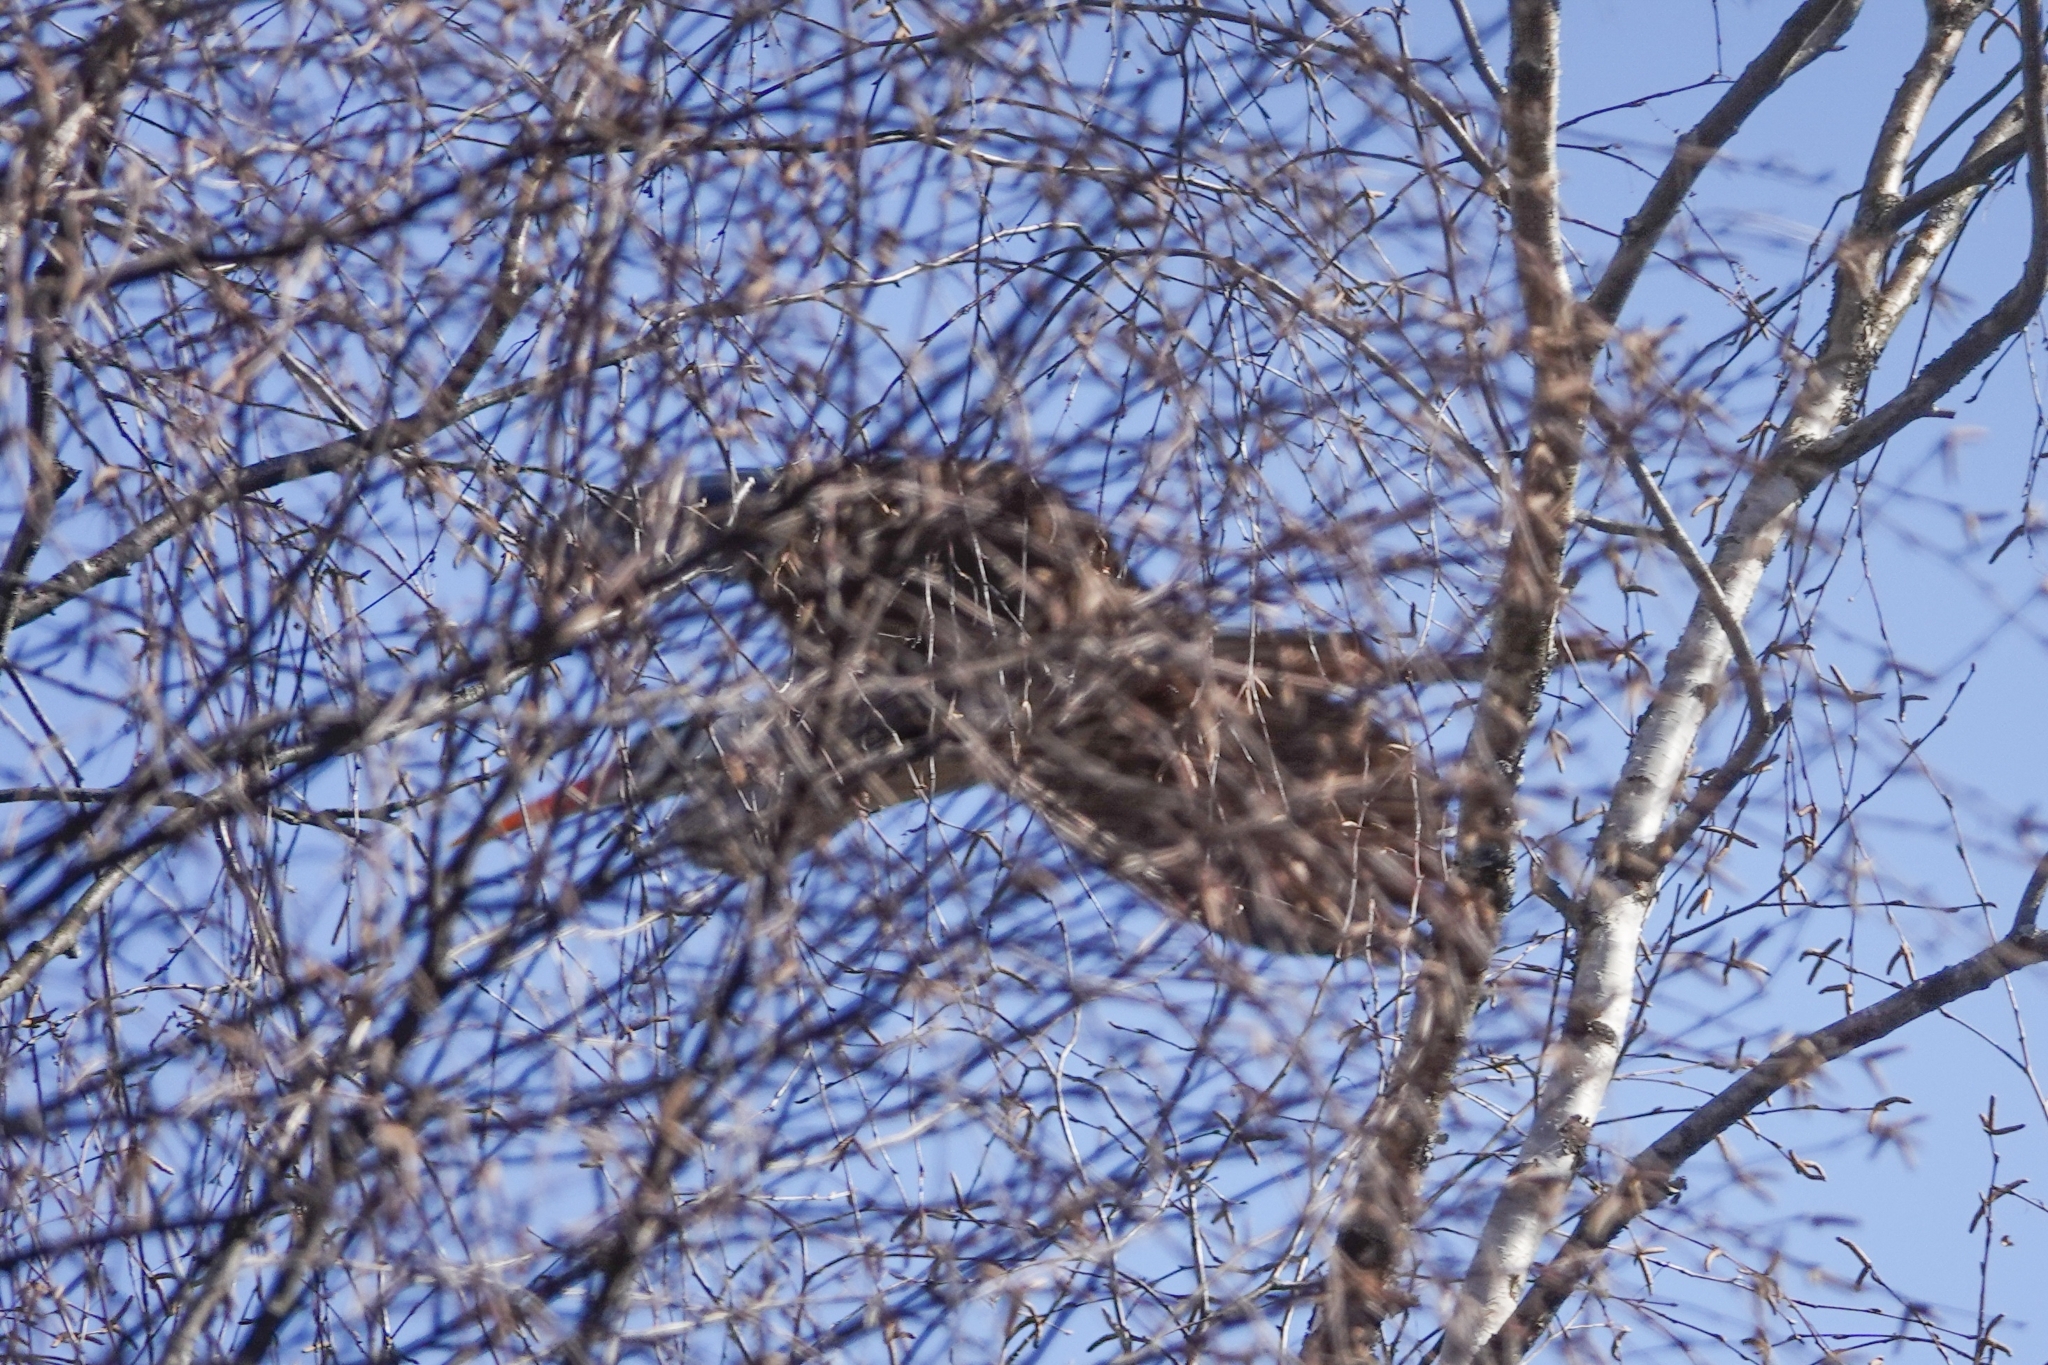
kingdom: Animalia
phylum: Chordata
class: Aves
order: Pelecaniformes
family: Ardeidae
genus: Ardea
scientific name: Ardea cinerea
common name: Grey heron
